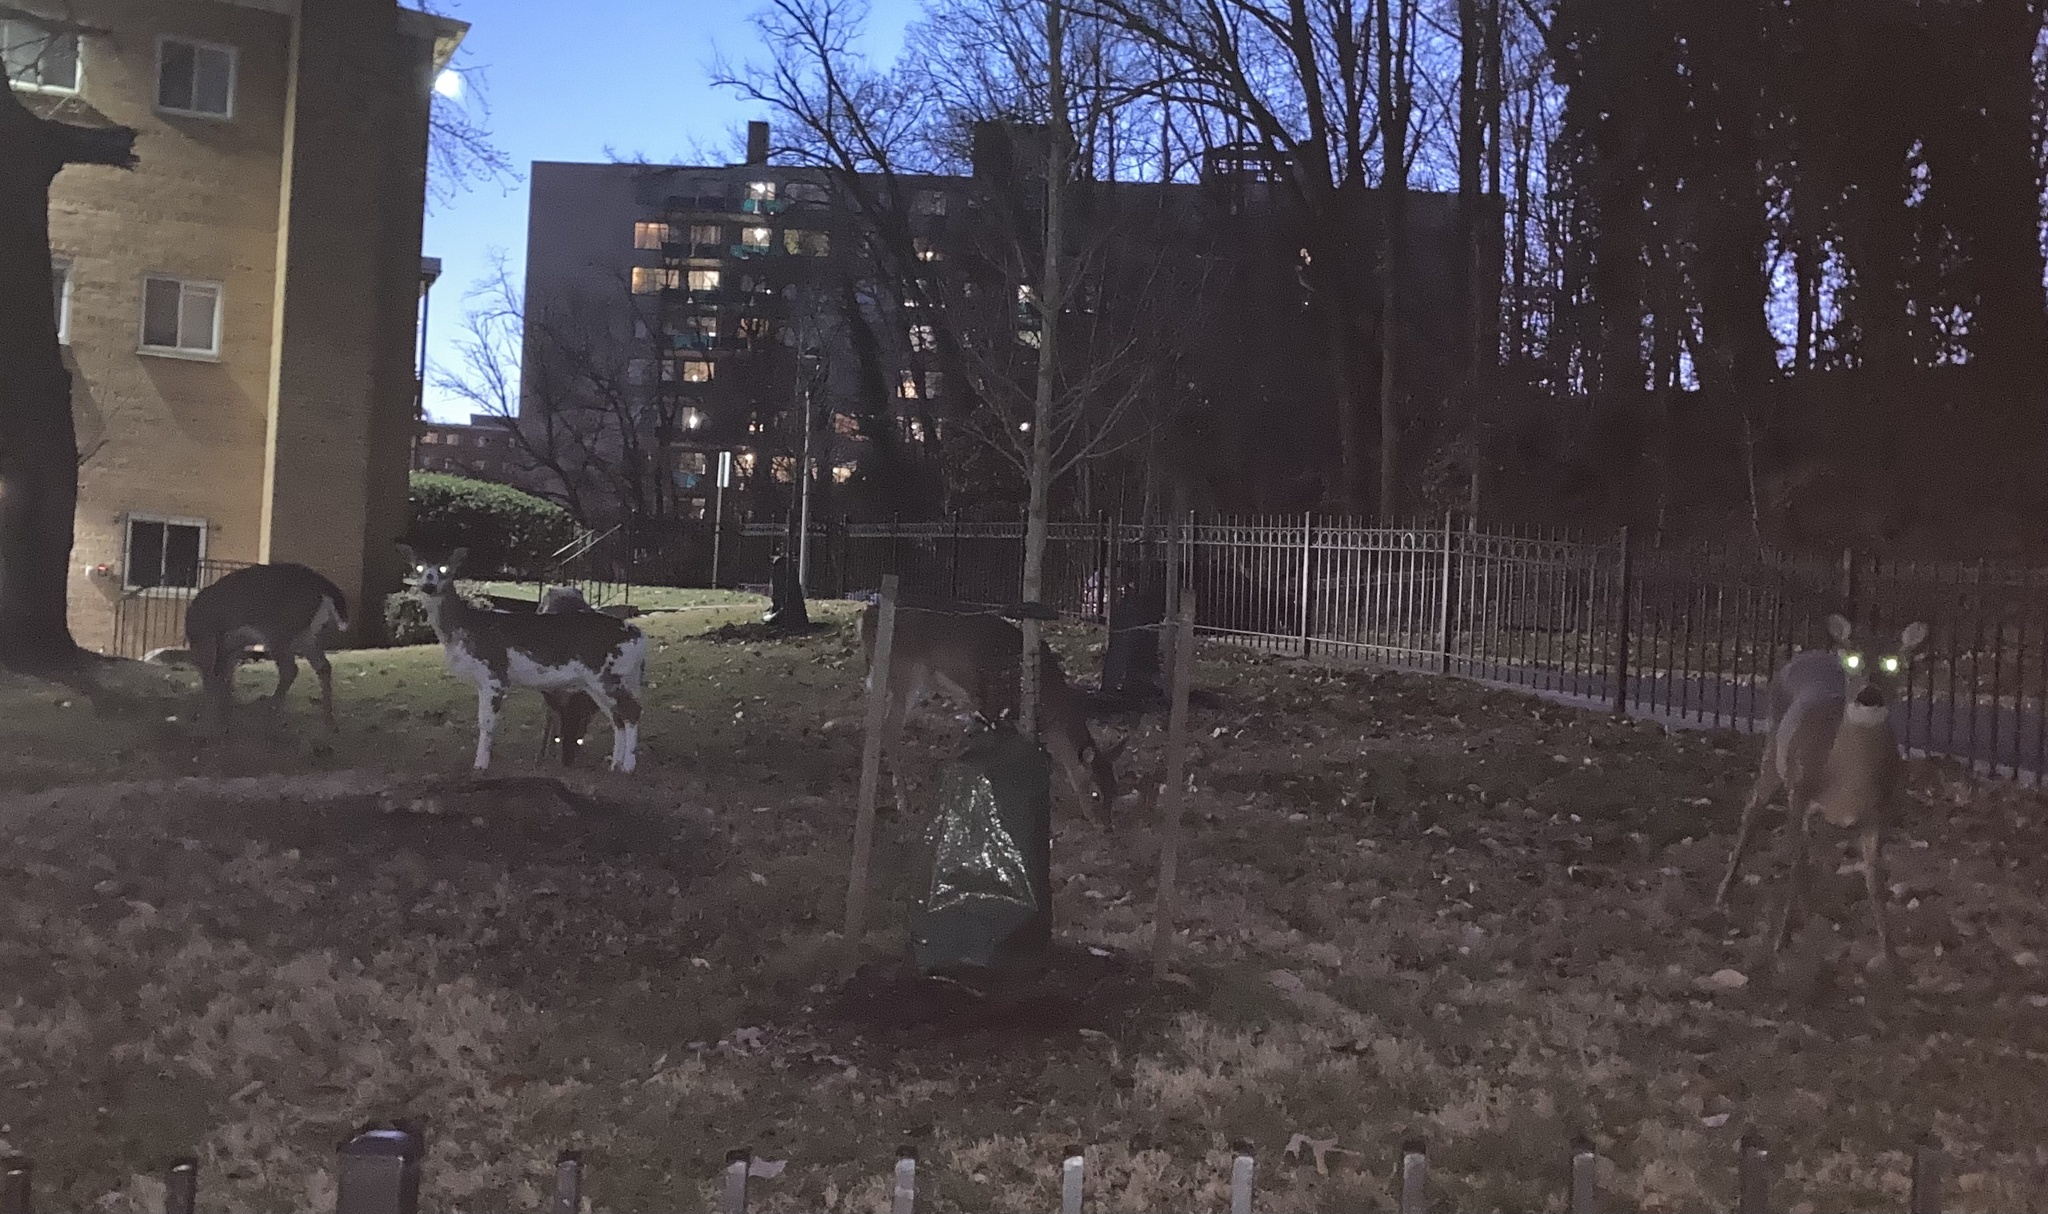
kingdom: Animalia
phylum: Chordata
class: Mammalia
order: Artiodactyla
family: Cervidae
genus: Odocoileus
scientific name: Odocoileus virginianus
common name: White-tailed deer
